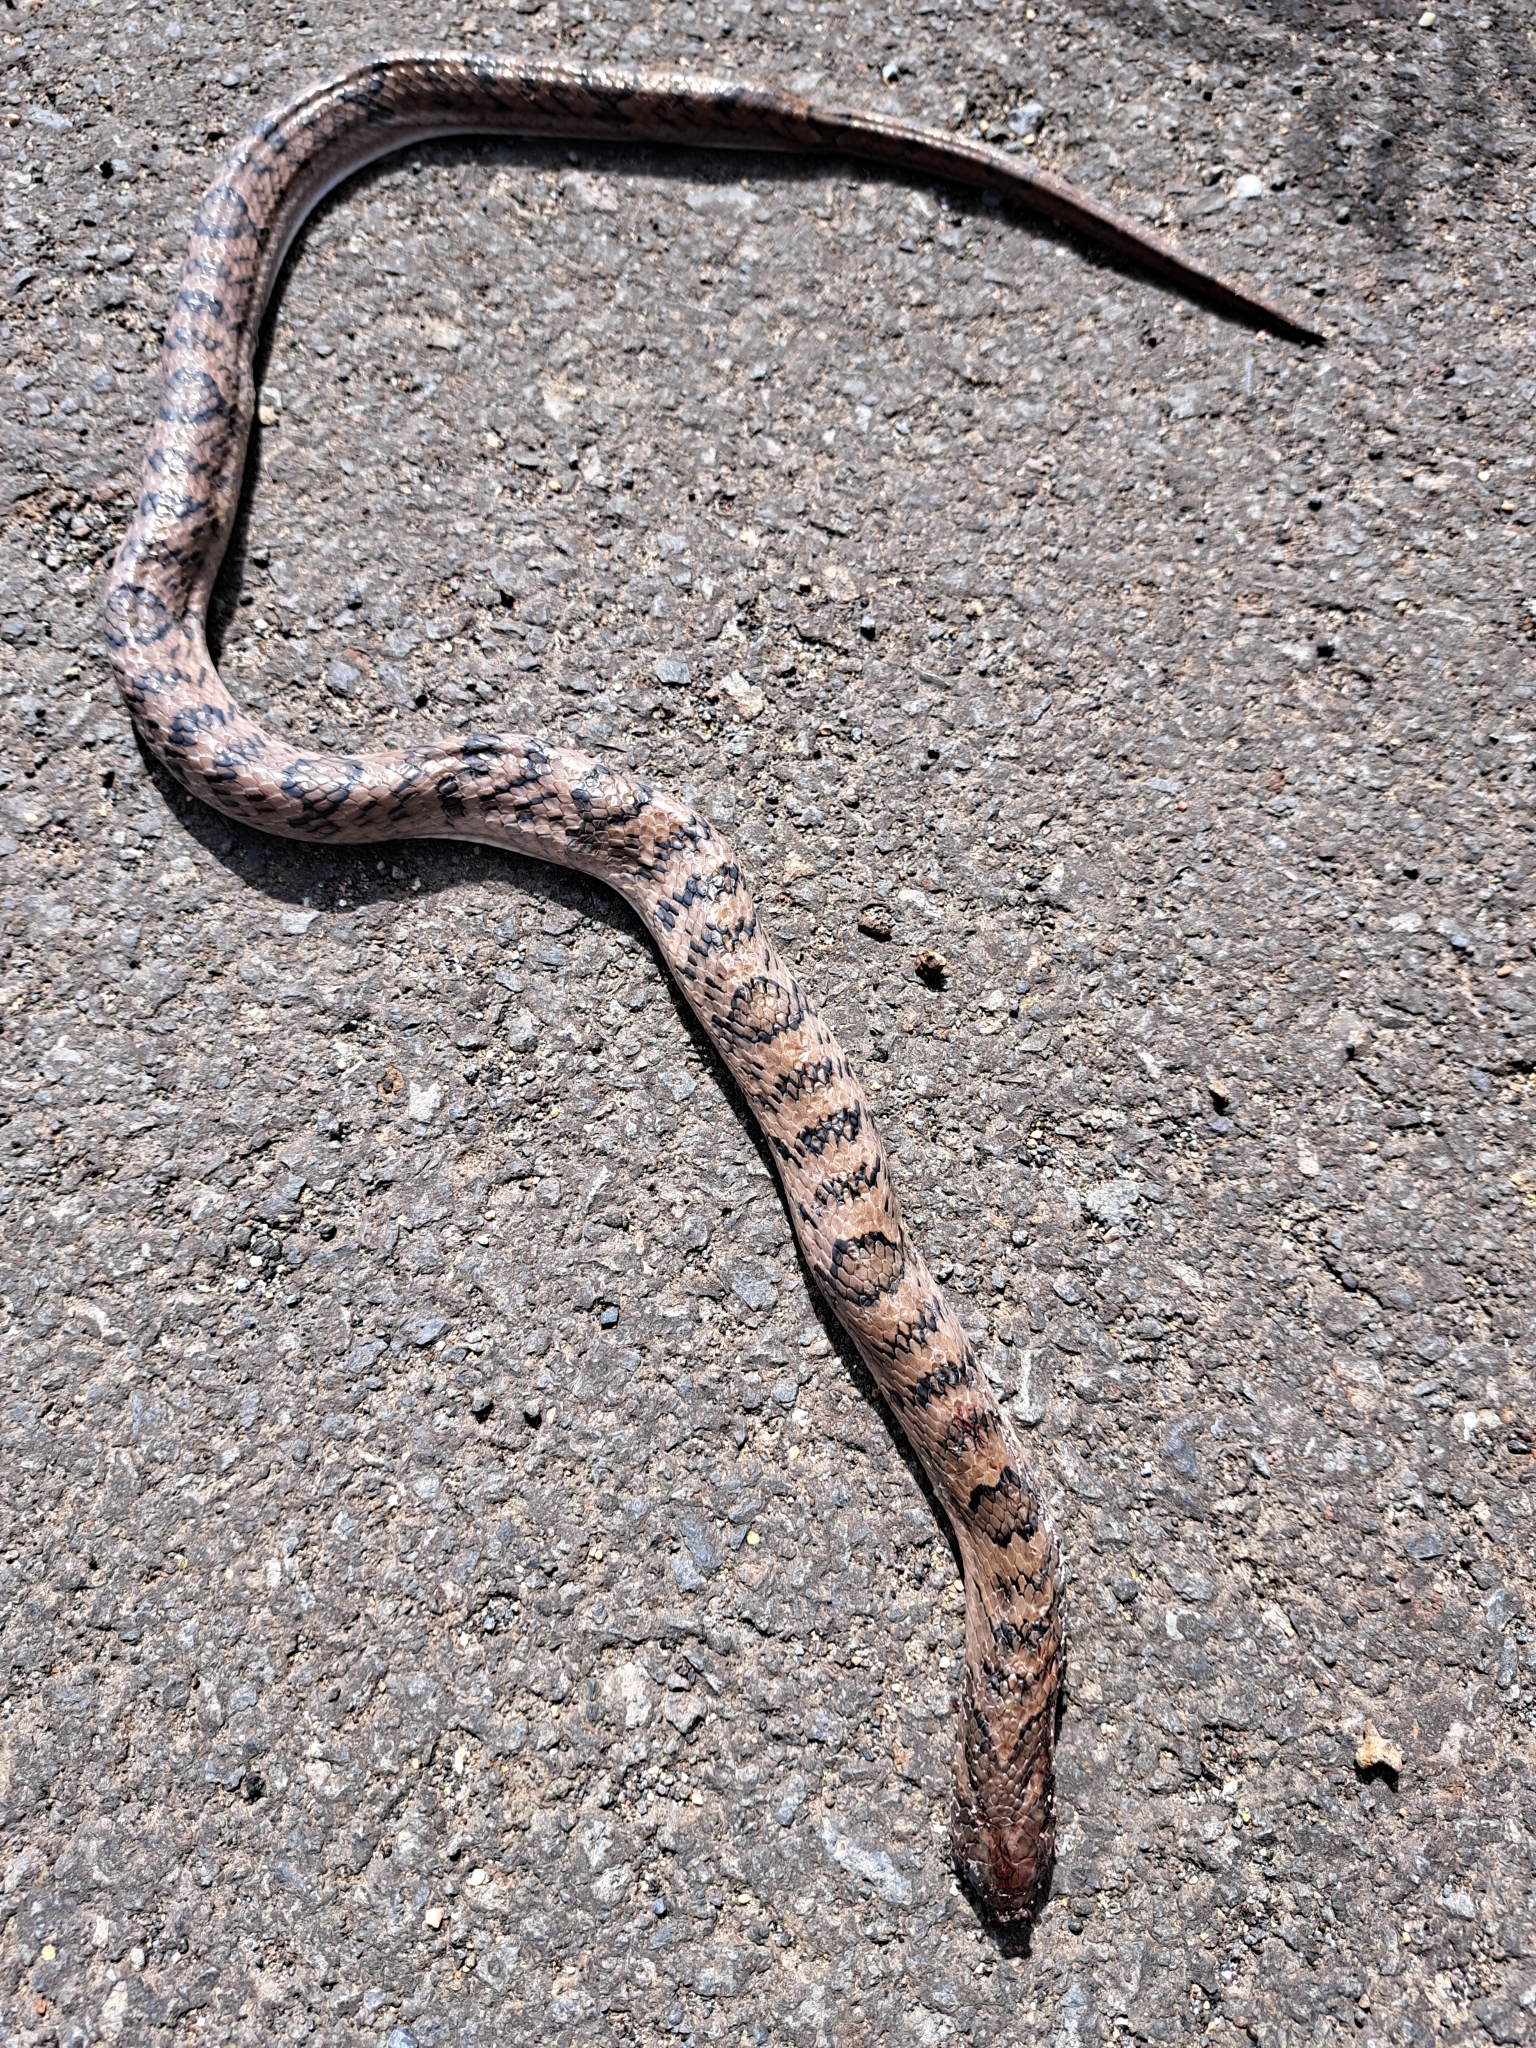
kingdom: Animalia
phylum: Chordata
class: Squamata
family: Colubridae
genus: Oligodon
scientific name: Oligodon fasciolatus
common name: Fasciolated kukri snake
